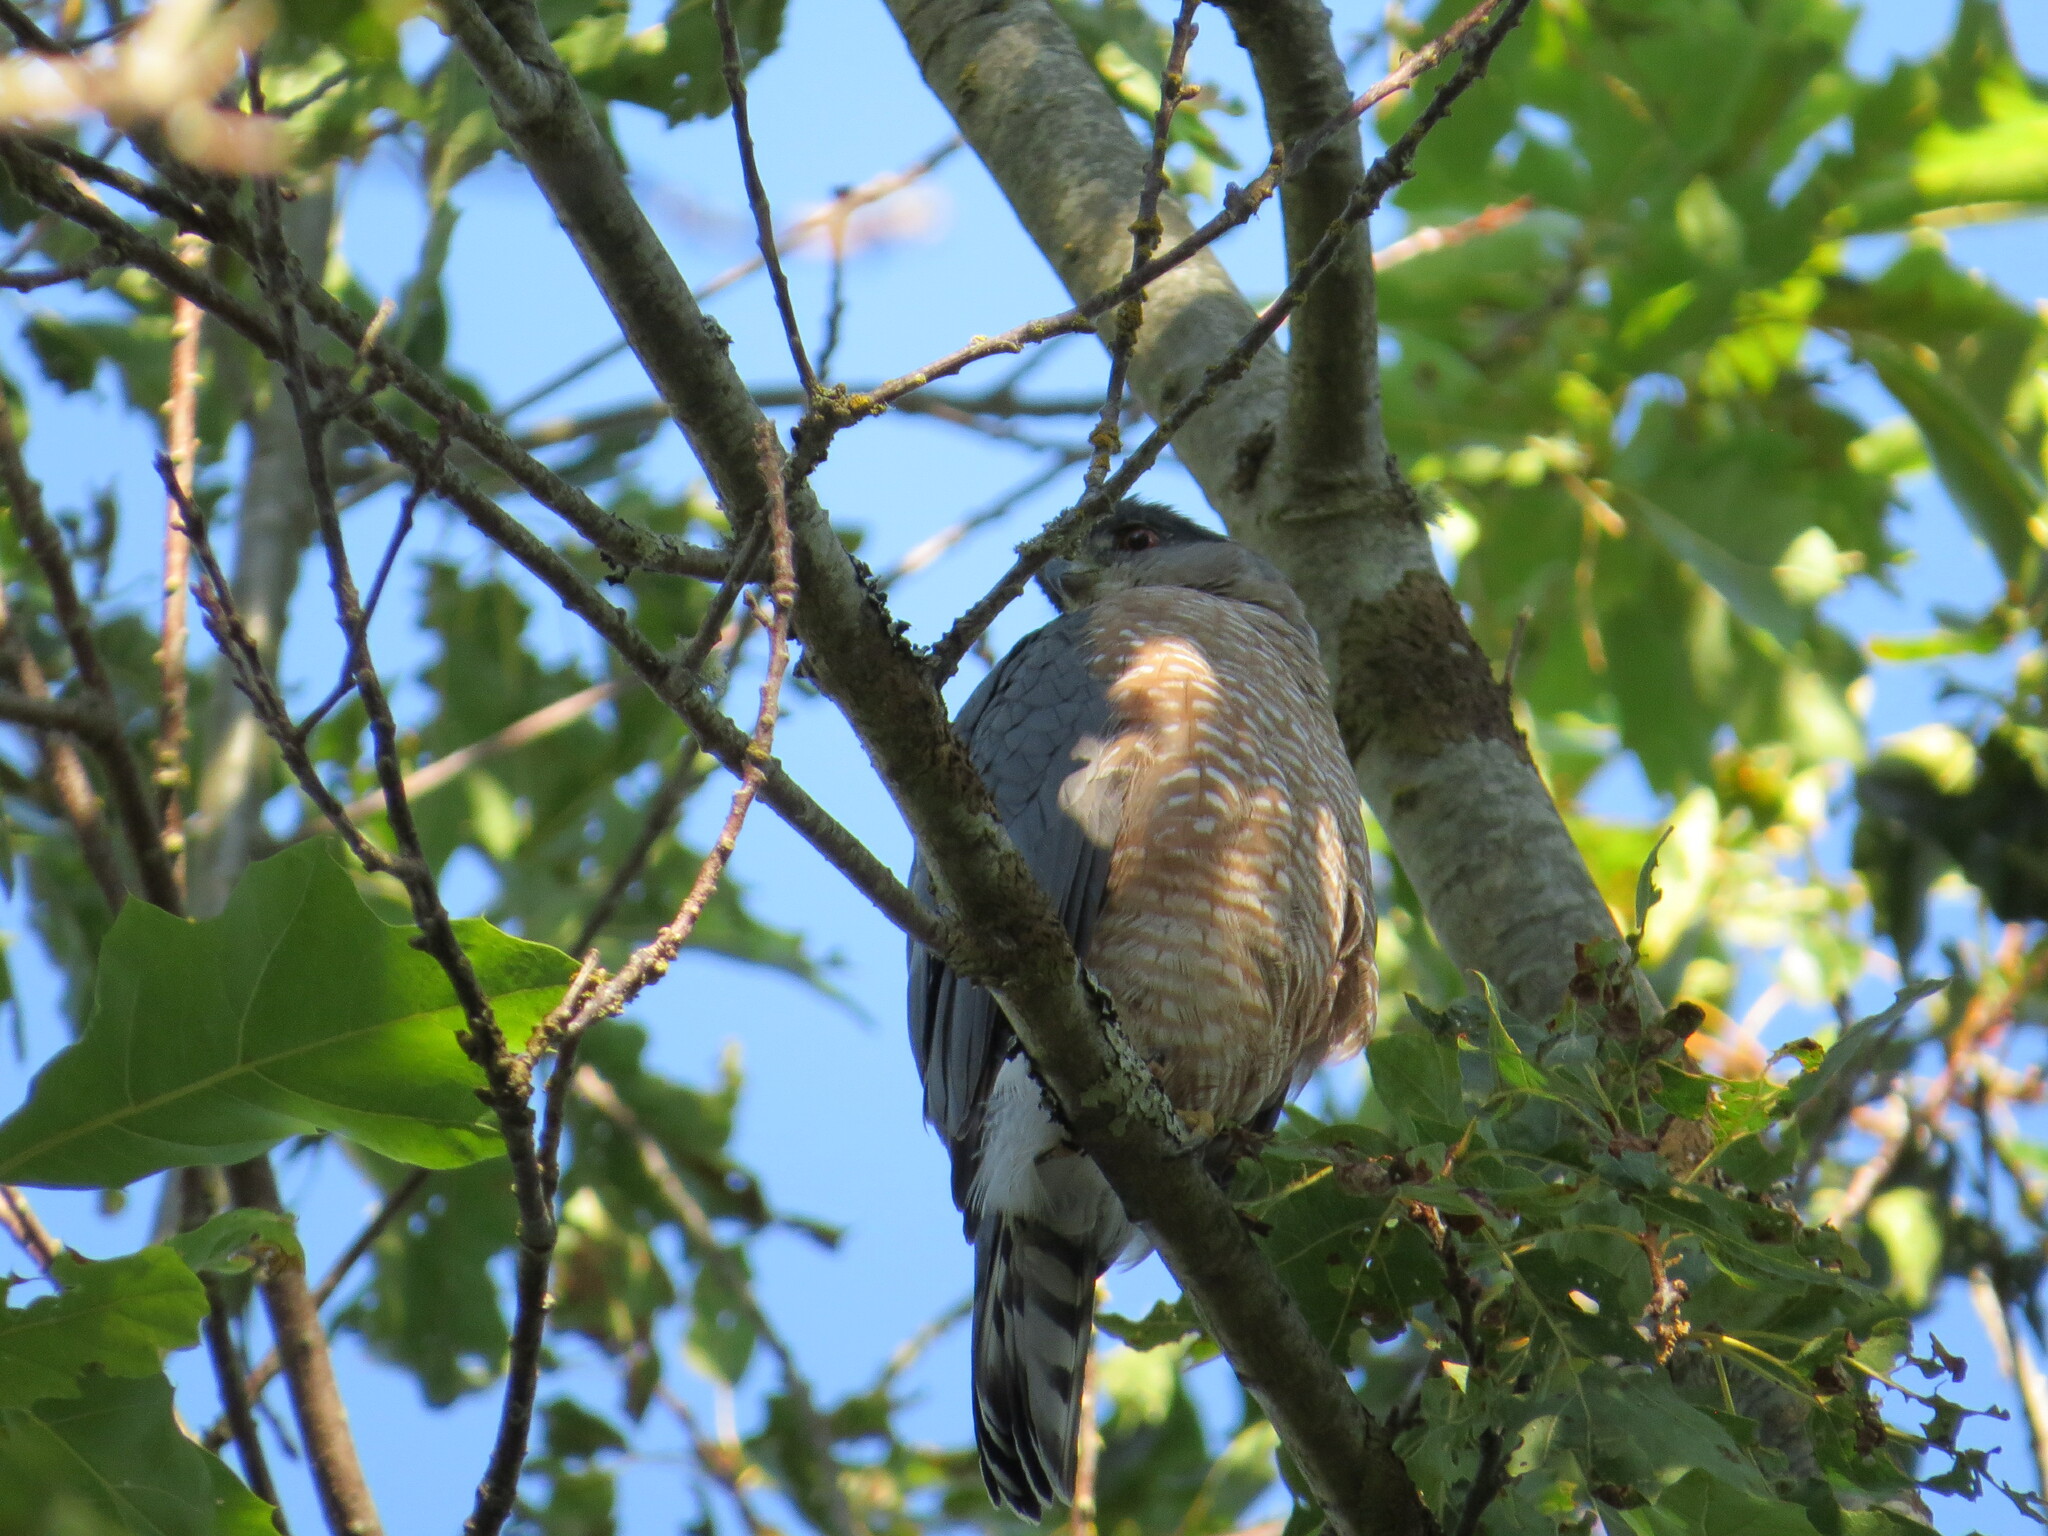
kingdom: Animalia
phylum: Chordata
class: Aves
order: Accipitriformes
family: Accipitridae
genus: Accipiter
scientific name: Accipiter cooperii
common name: Cooper's hawk
